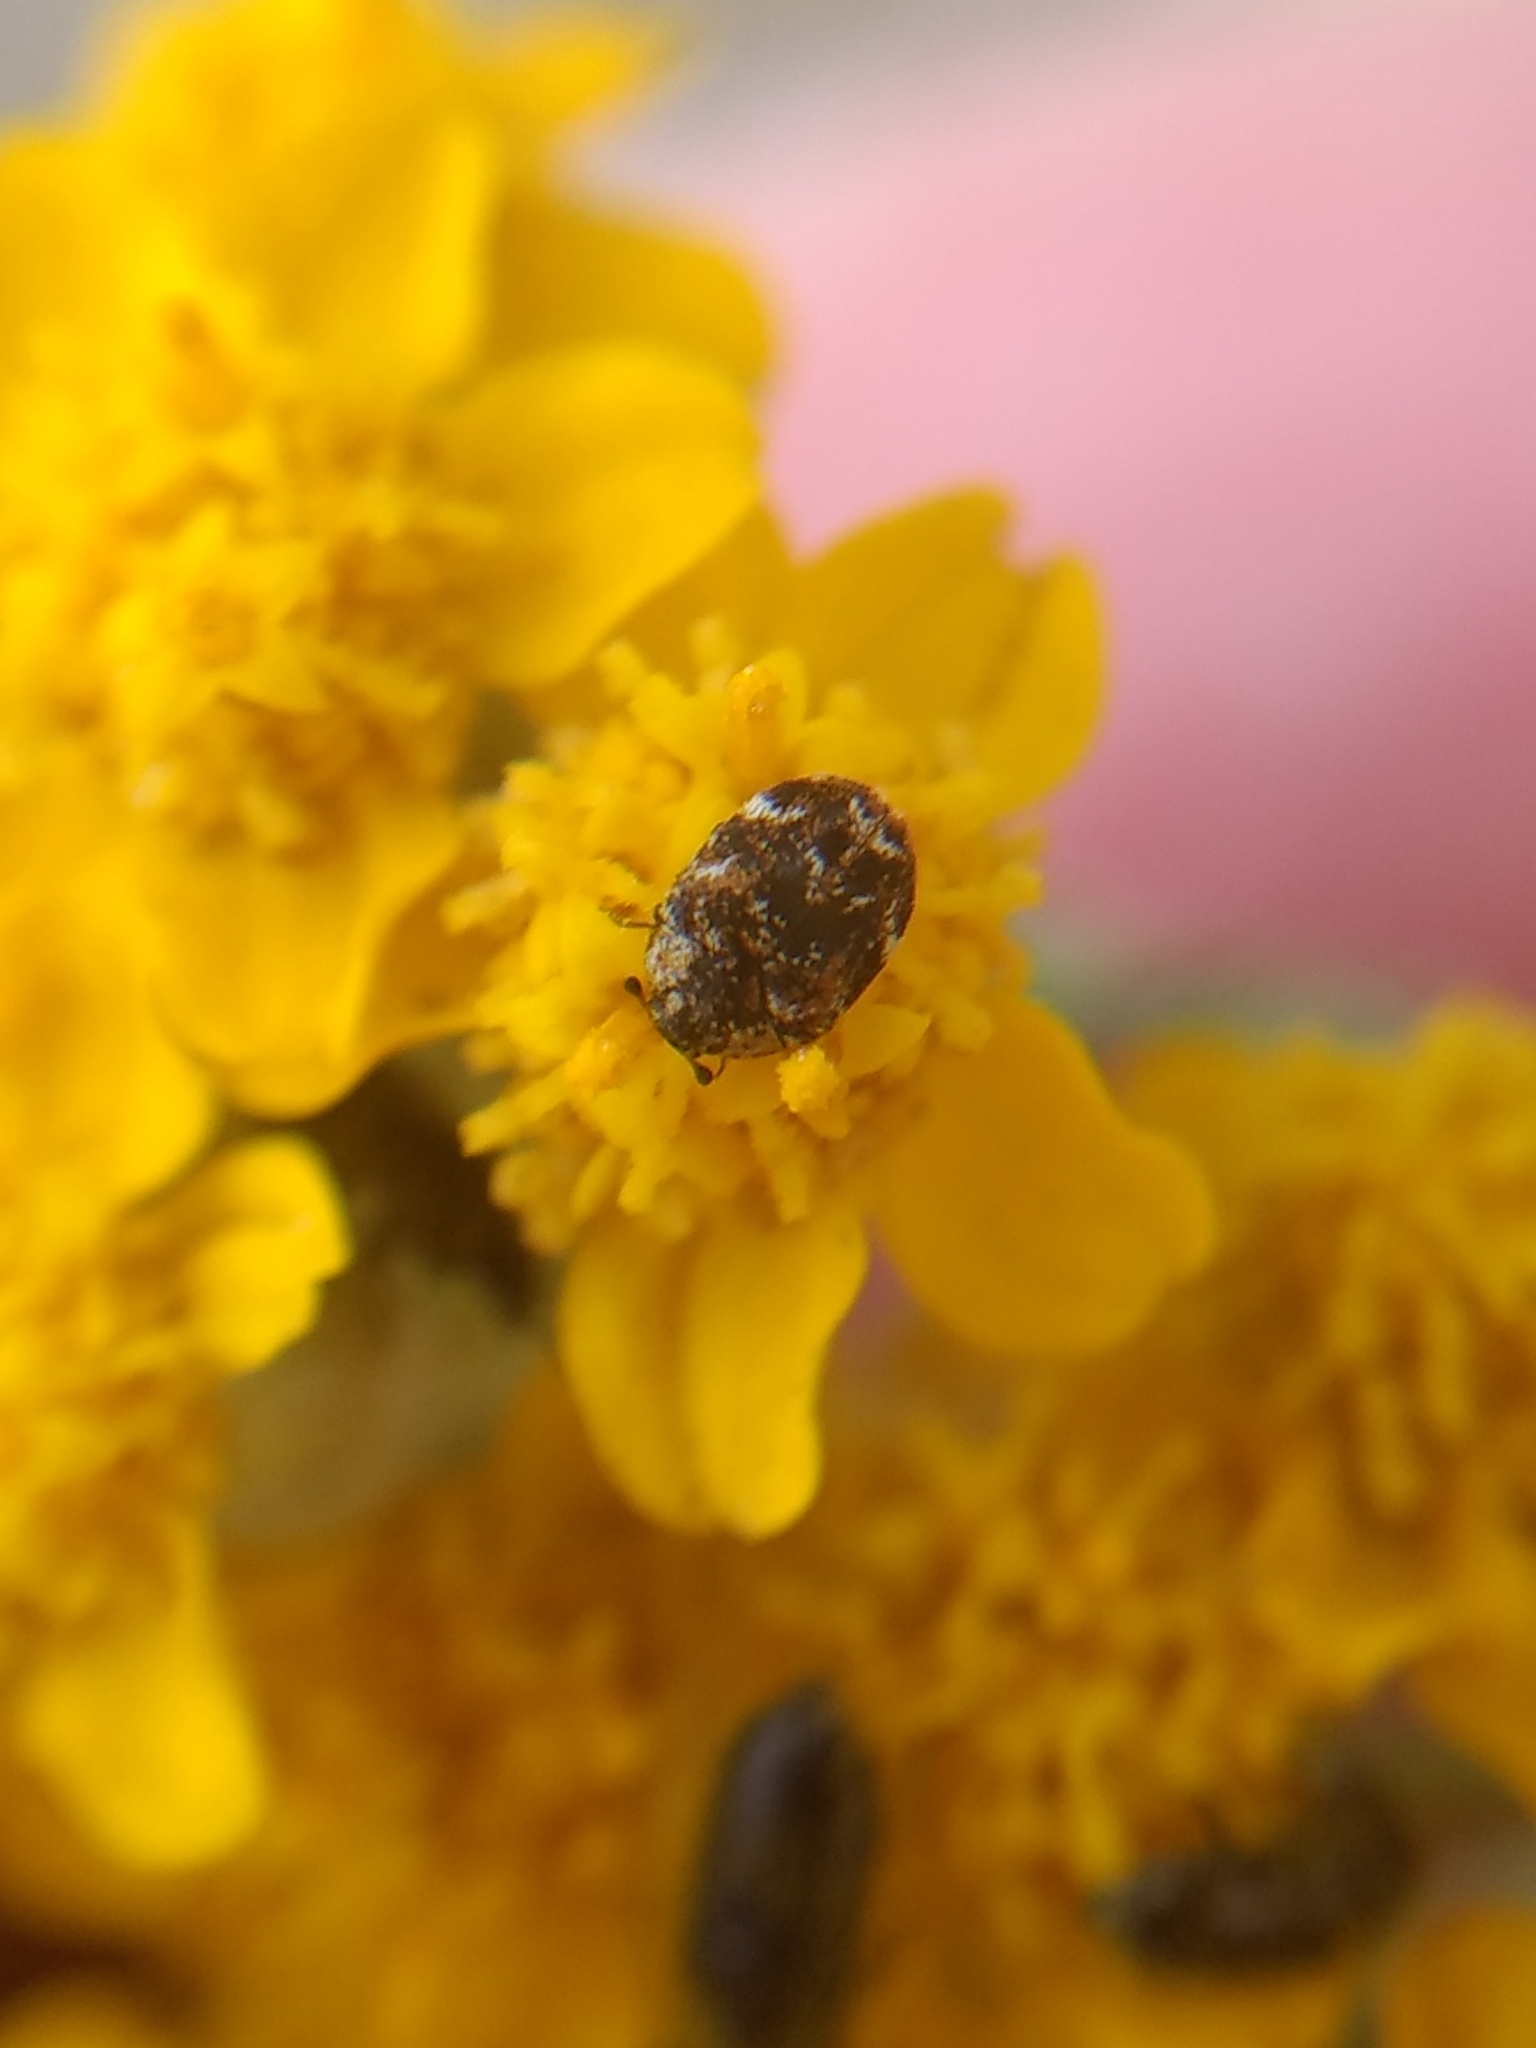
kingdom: Animalia
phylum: Arthropoda
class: Insecta
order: Coleoptera
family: Dermestidae
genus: Anthrenus
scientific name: Anthrenus verbasci
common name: Varied carpet beetle
